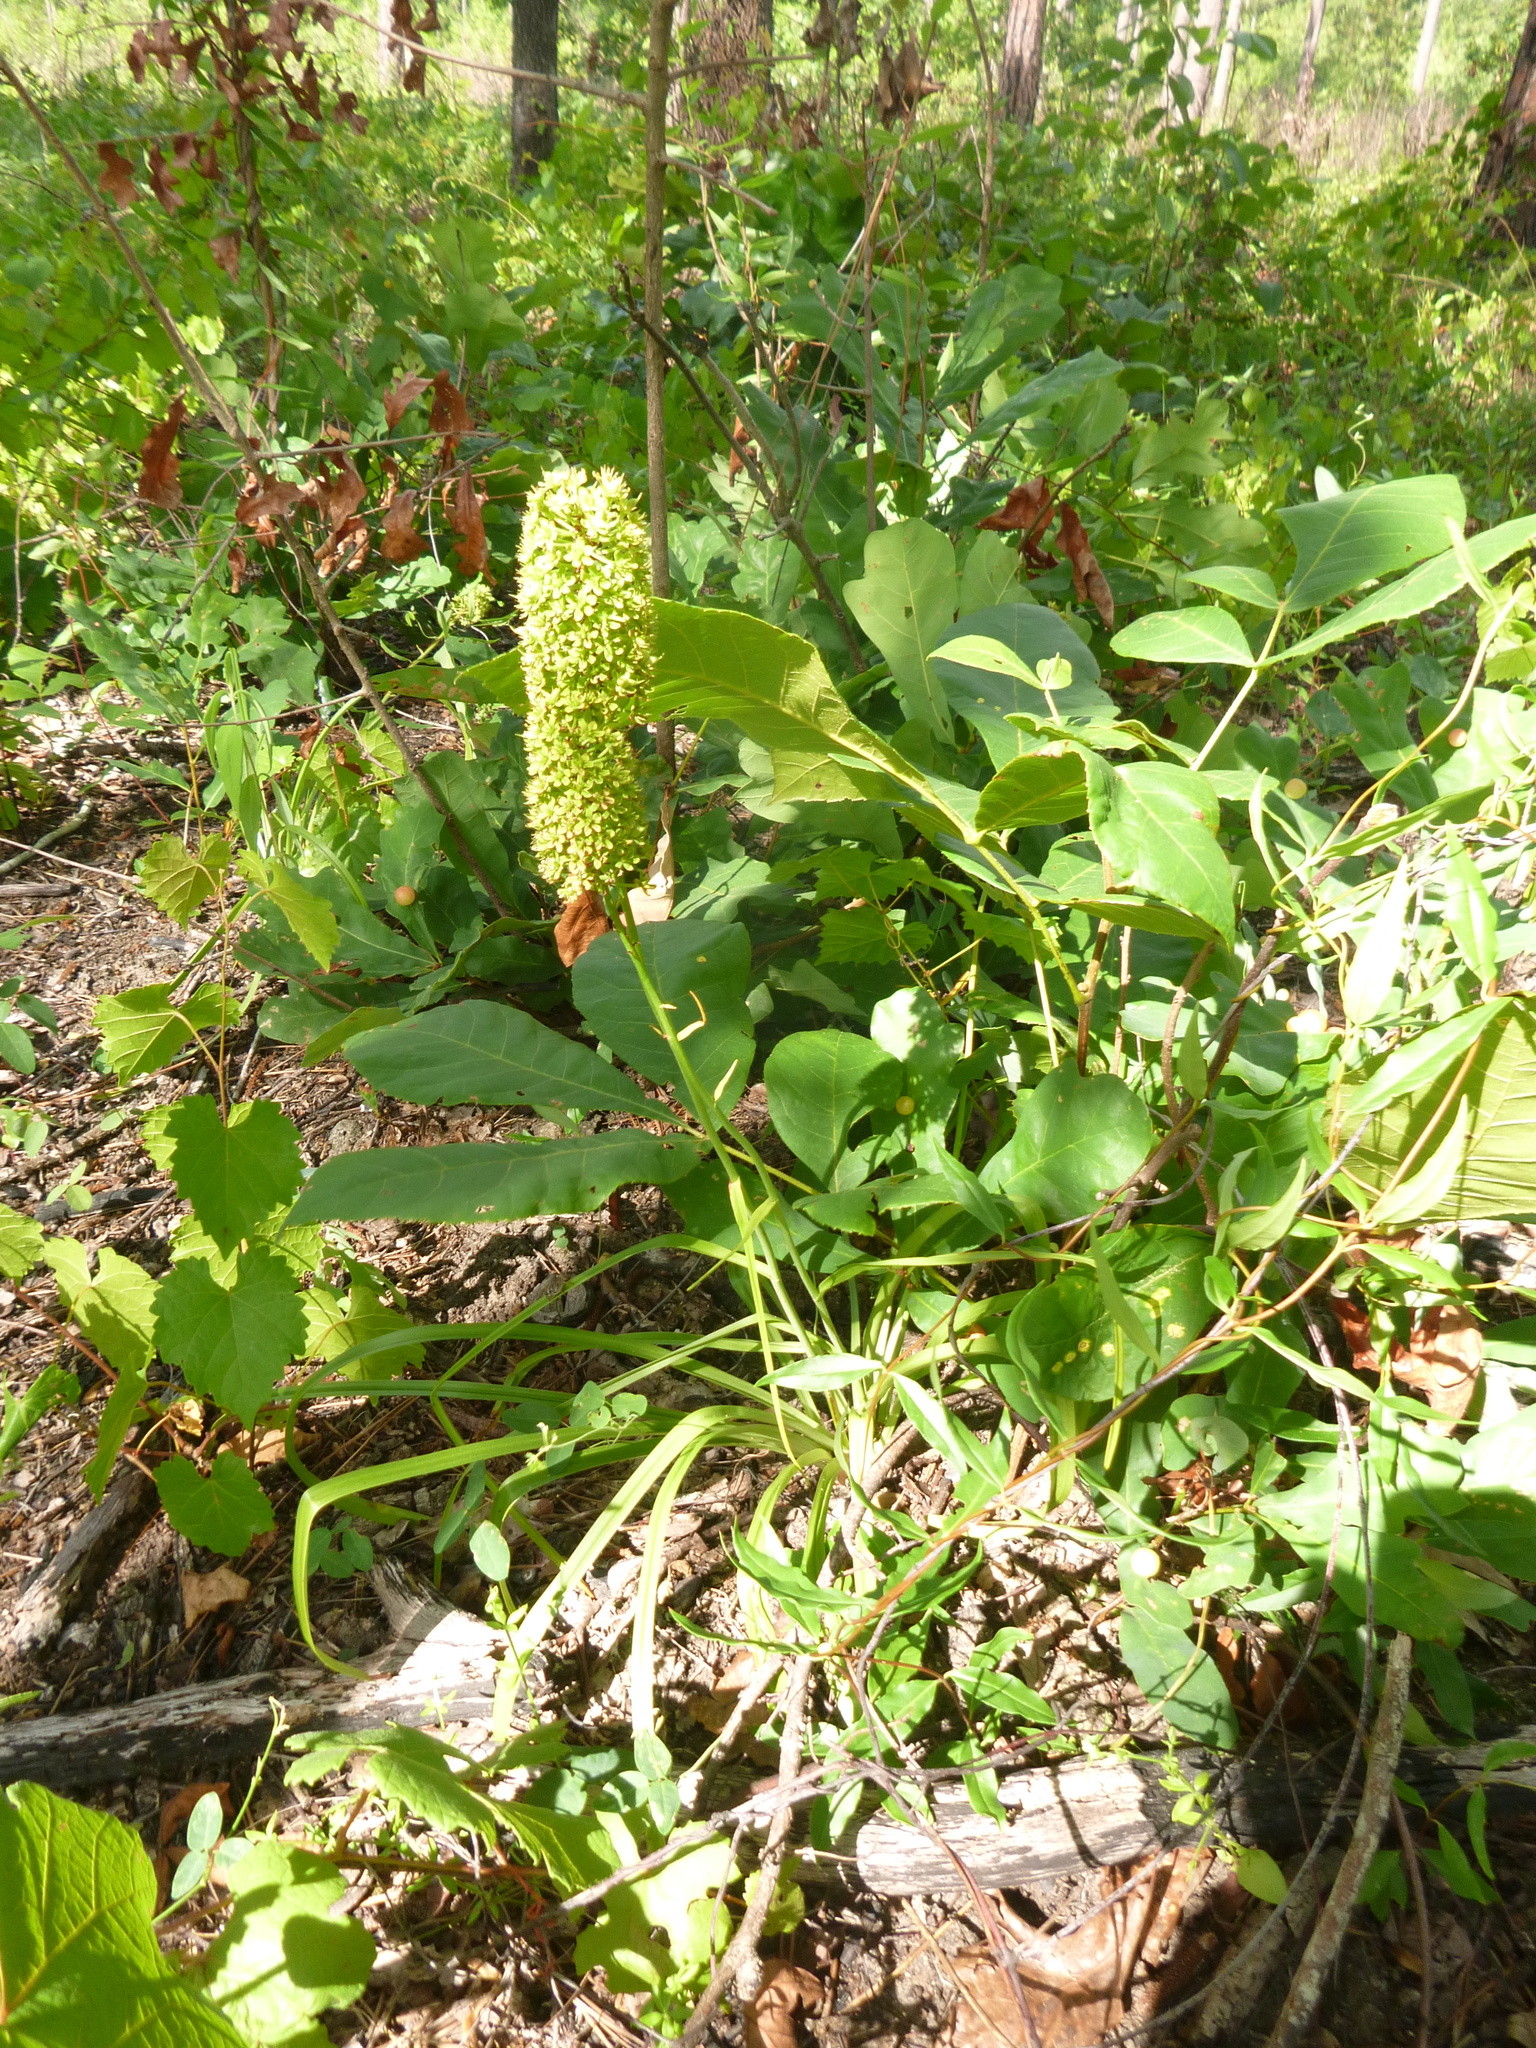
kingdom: Plantae
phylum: Tracheophyta
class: Liliopsida
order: Liliales
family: Melanthiaceae
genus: Amianthium
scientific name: Amianthium muscitoxicum
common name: Fly-poison
